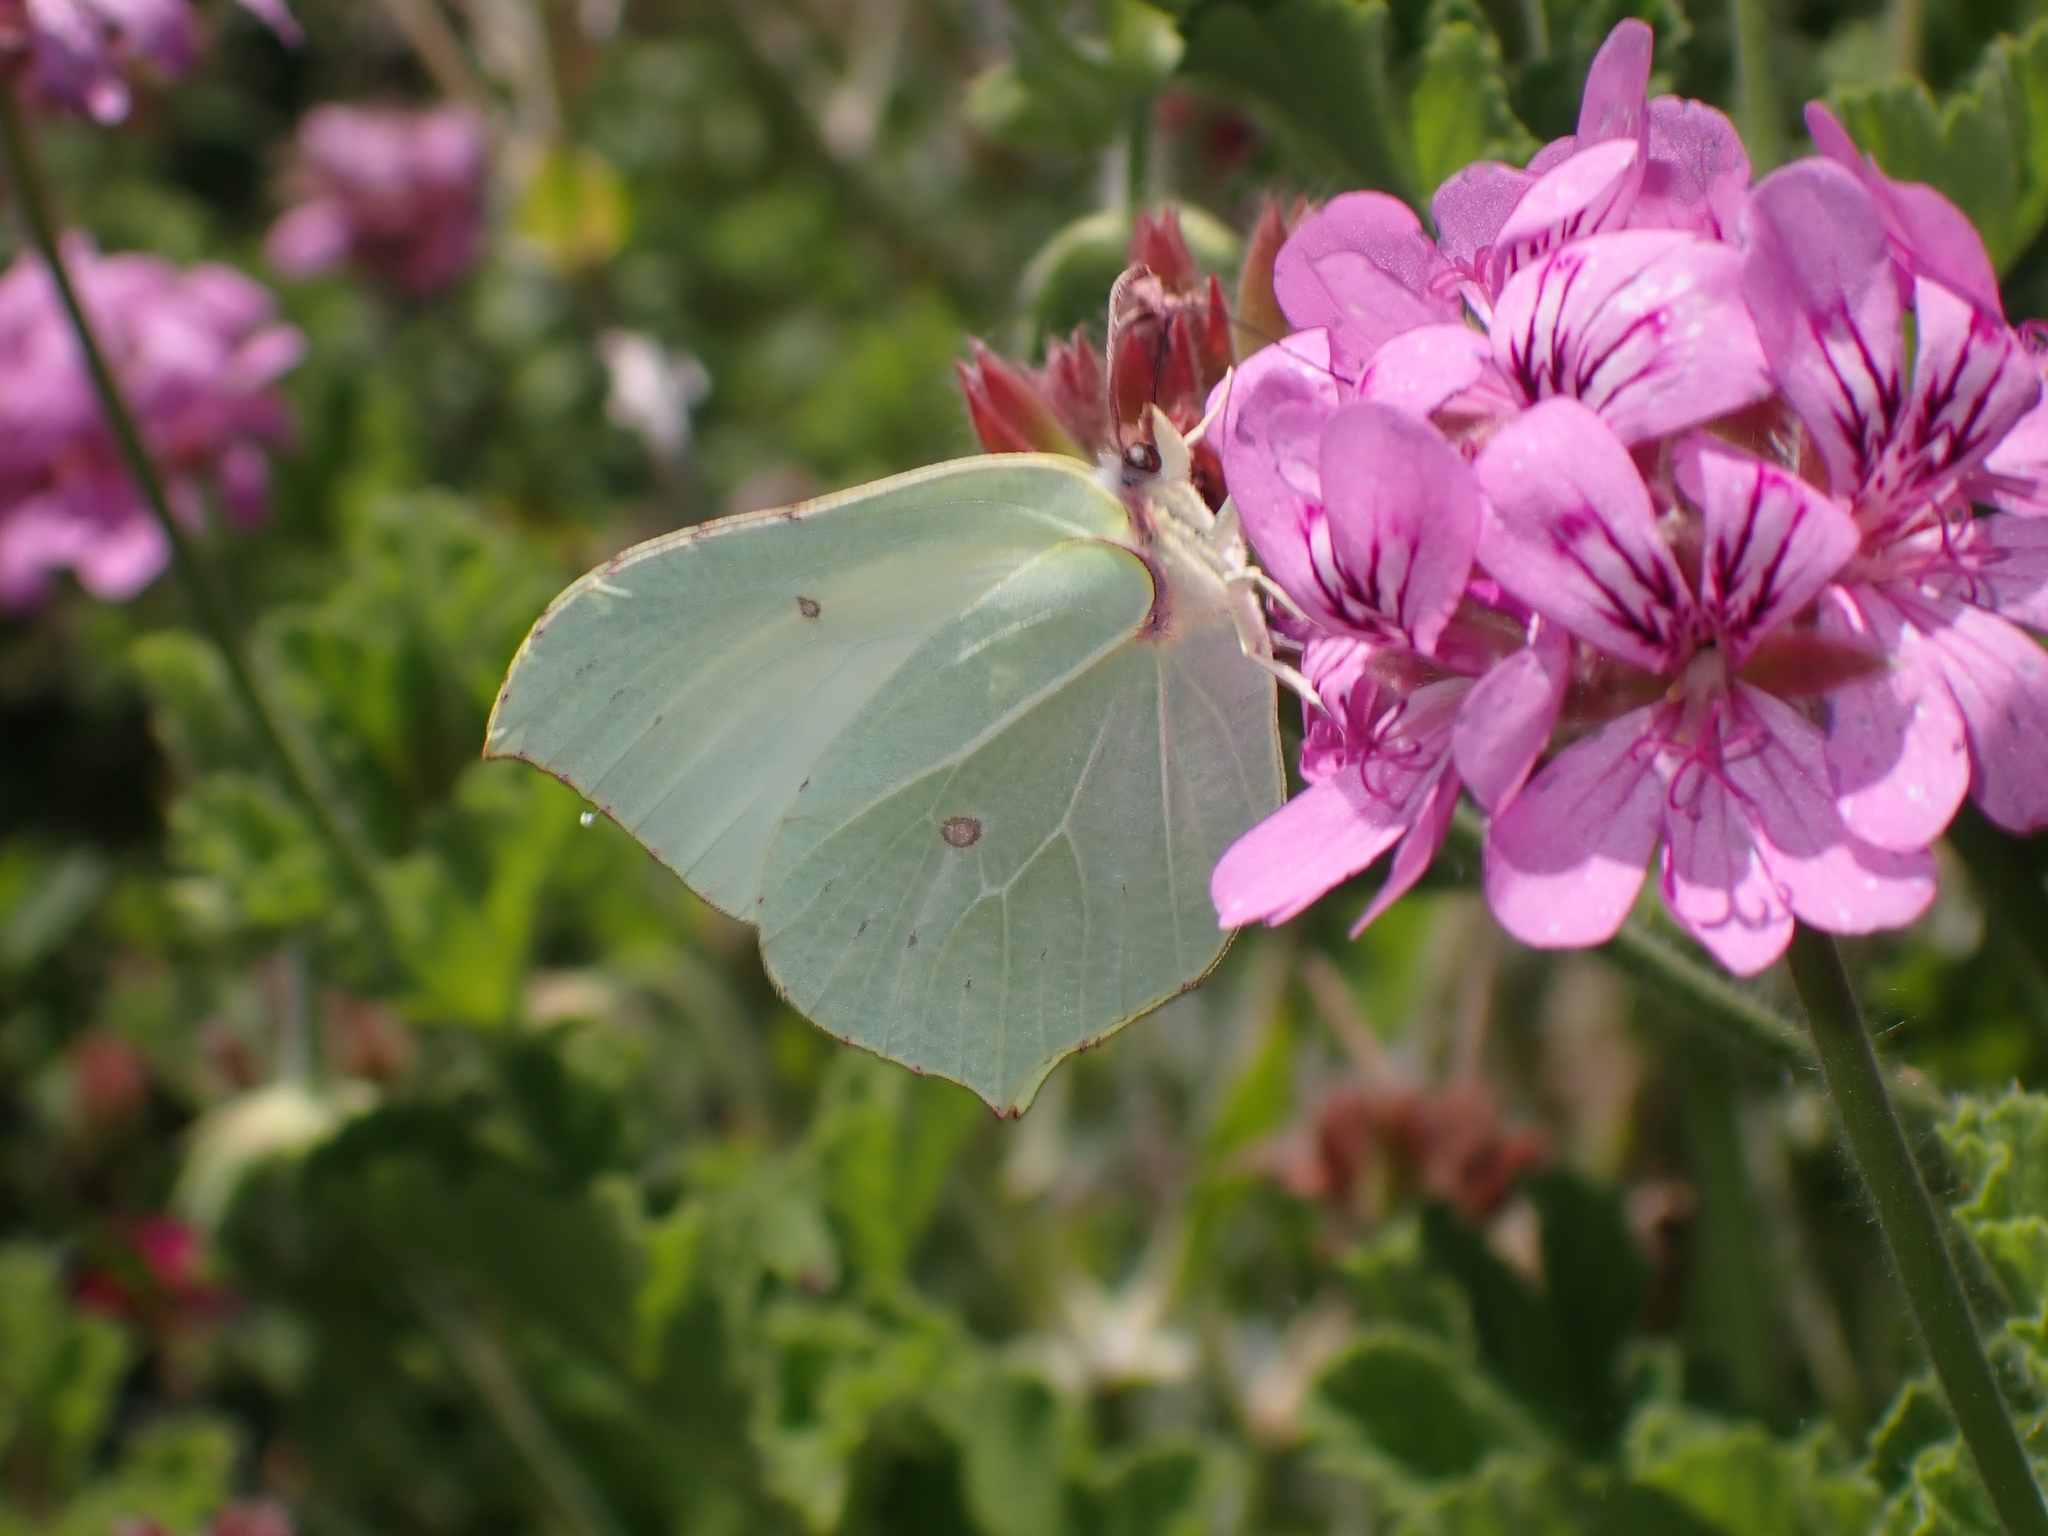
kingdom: Animalia
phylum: Arthropoda
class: Insecta
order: Lepidoptera
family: Pieridae
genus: Gonepteryx
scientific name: Gonepteryx rhamni
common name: Brimstone
